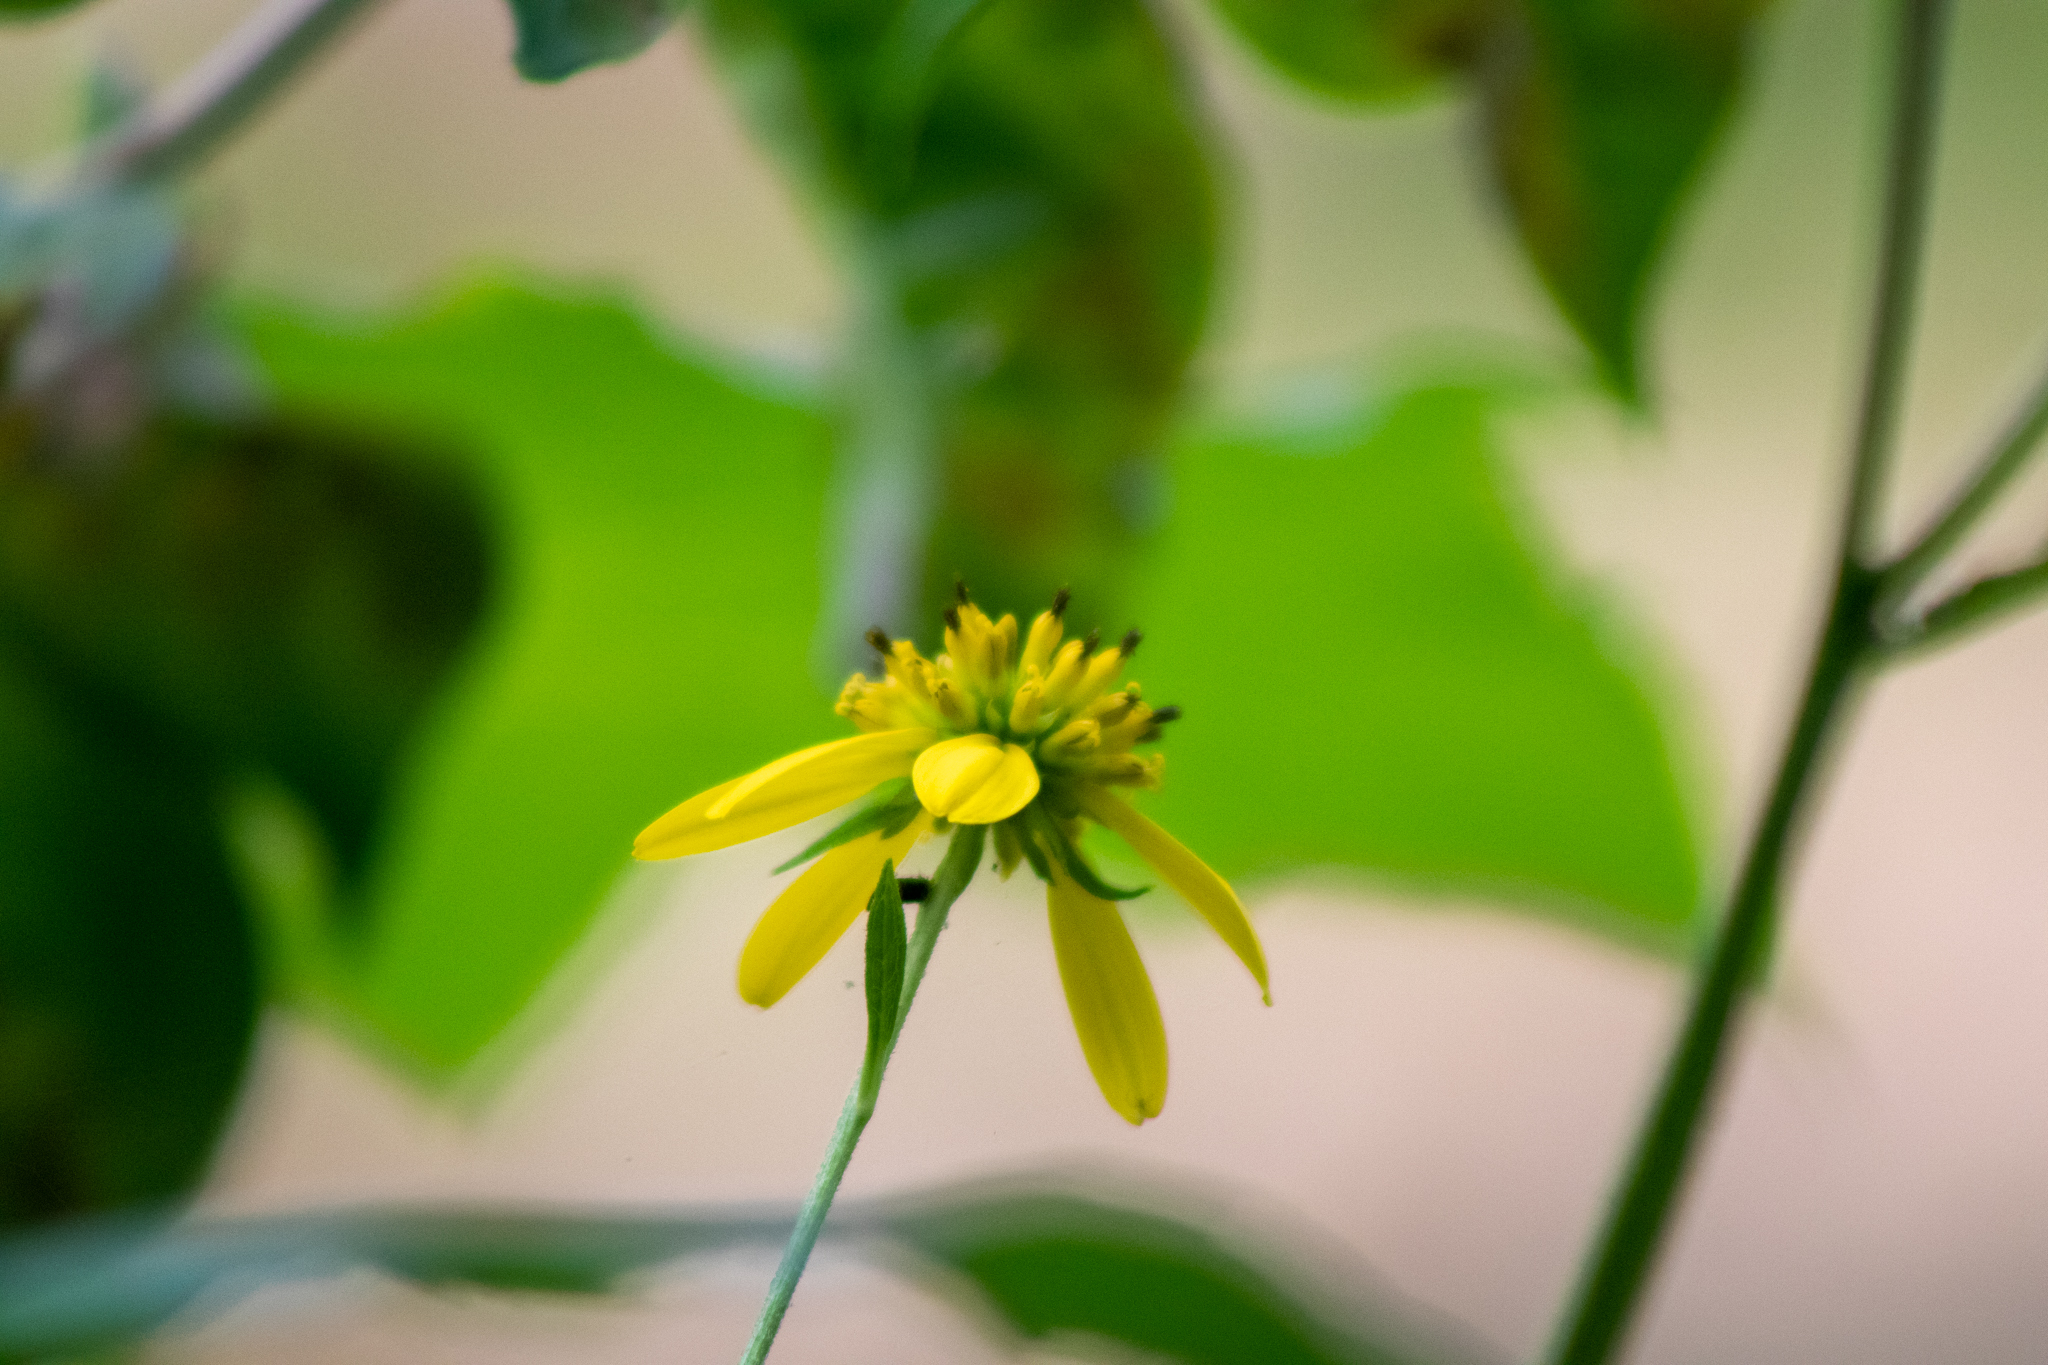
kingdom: Plantae
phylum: Tracheophyta
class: Magnoliopsida
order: Asterales
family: Asteraceae
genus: Verbesina
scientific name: Verbesina alternifolia
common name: Wingstem
